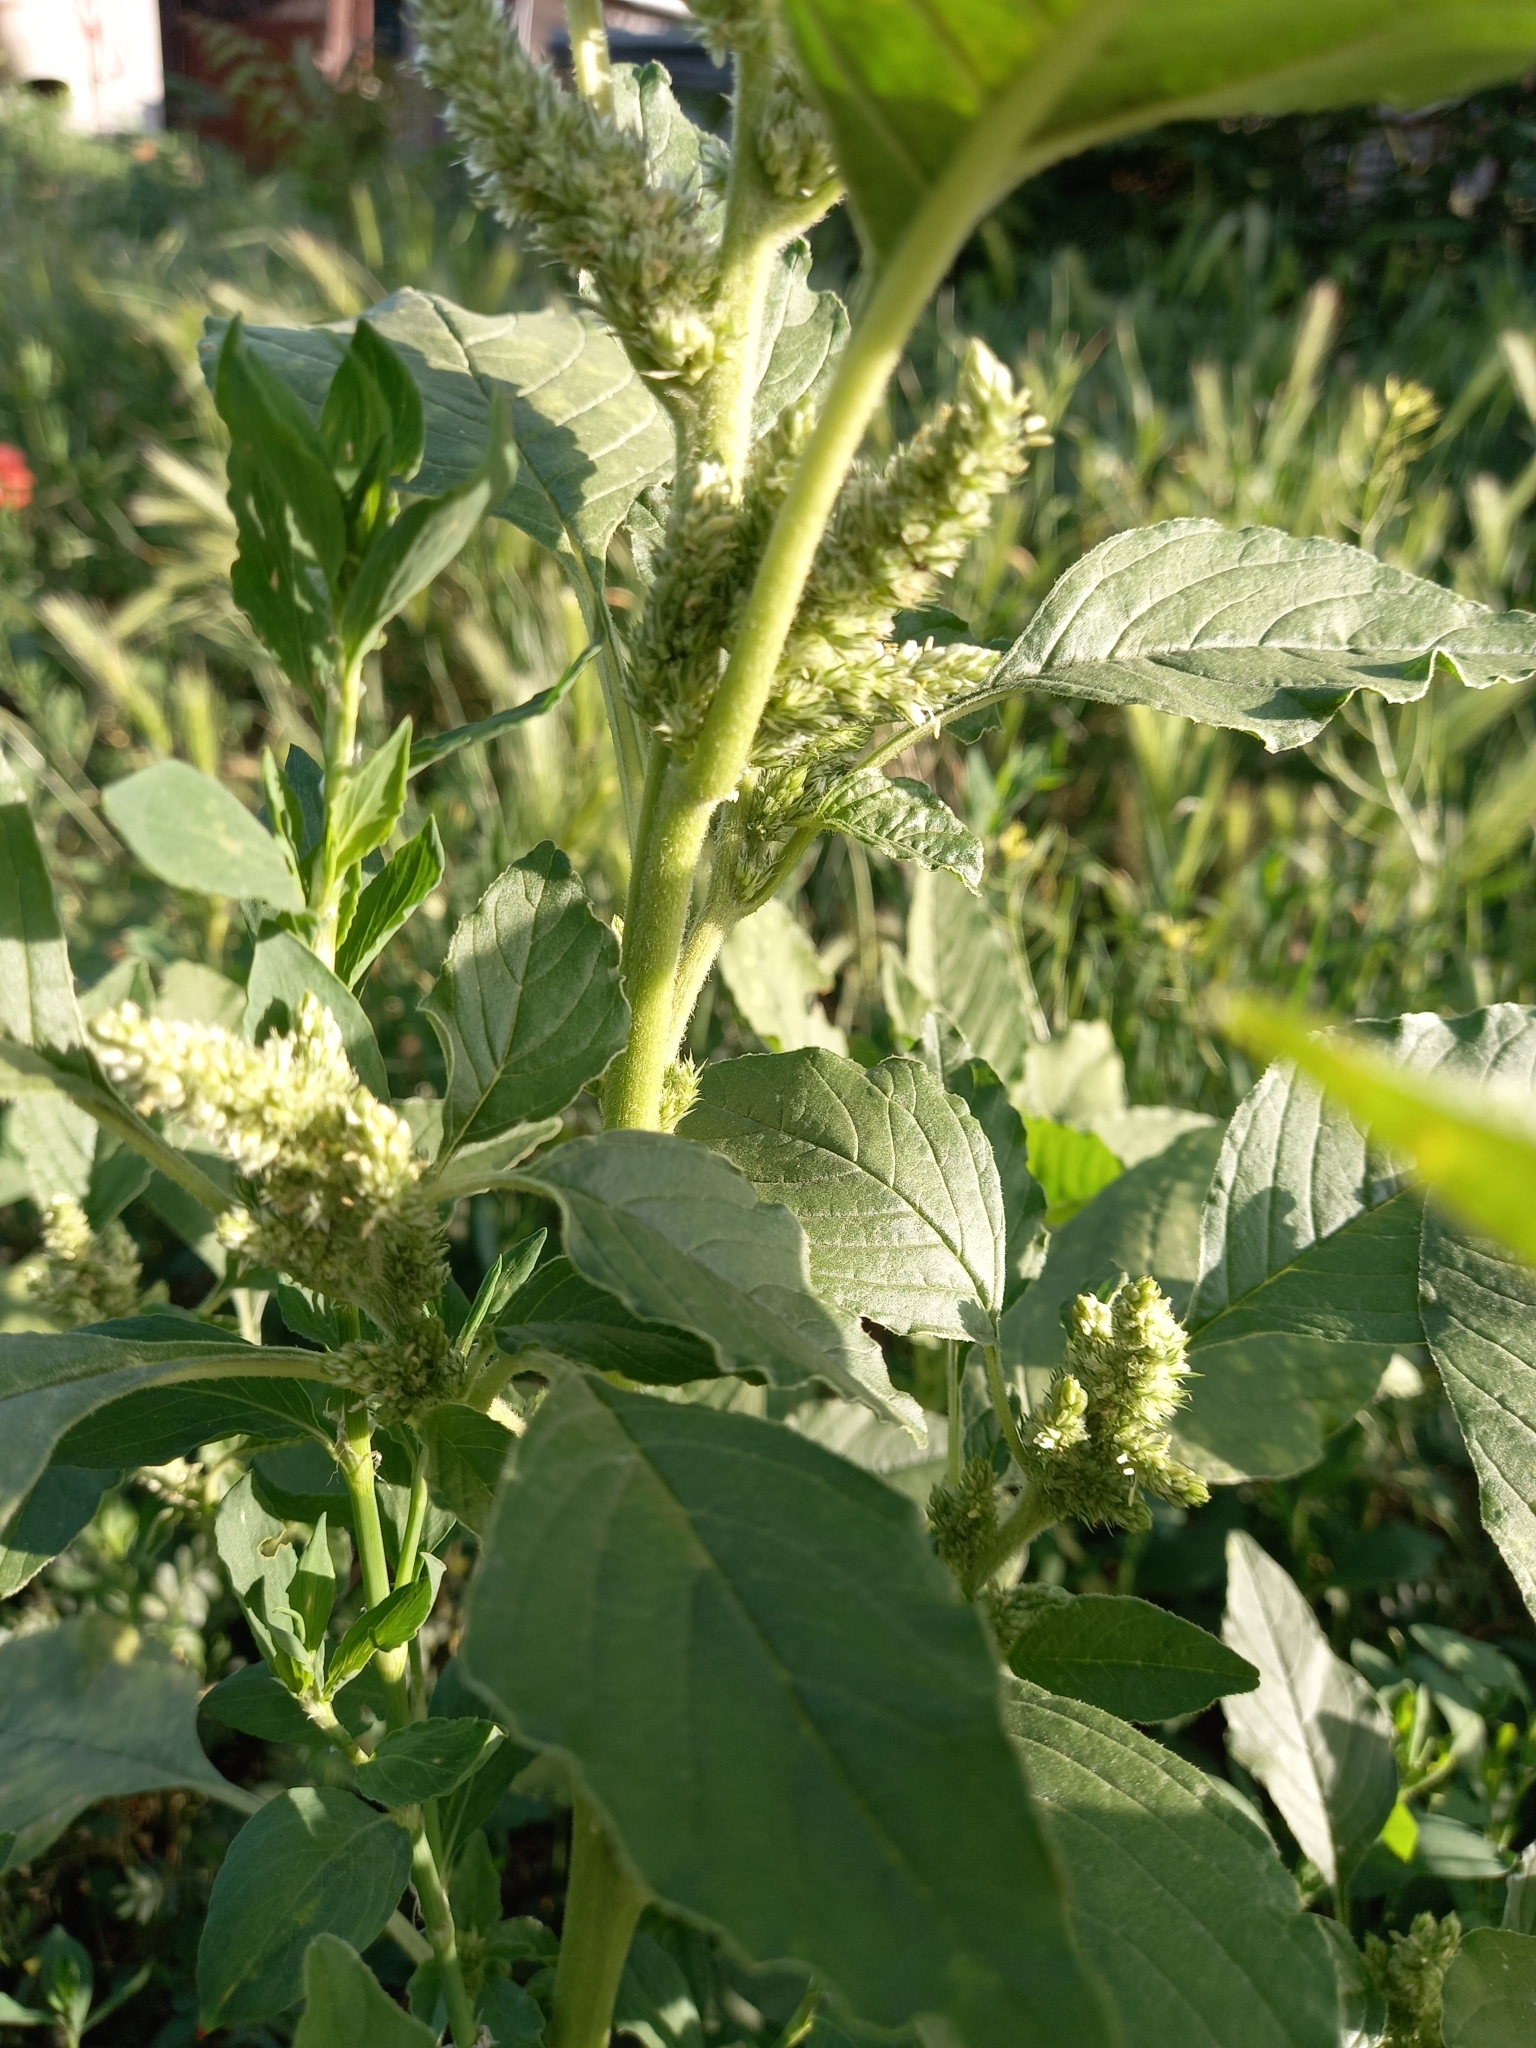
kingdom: Plantae
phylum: Tracheophyta
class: Magnoliopsida
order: Caryophyllales
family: Amaranthaceae
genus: Amaranthus
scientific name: Amaranthus retroflexus
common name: Redroot amaranth
